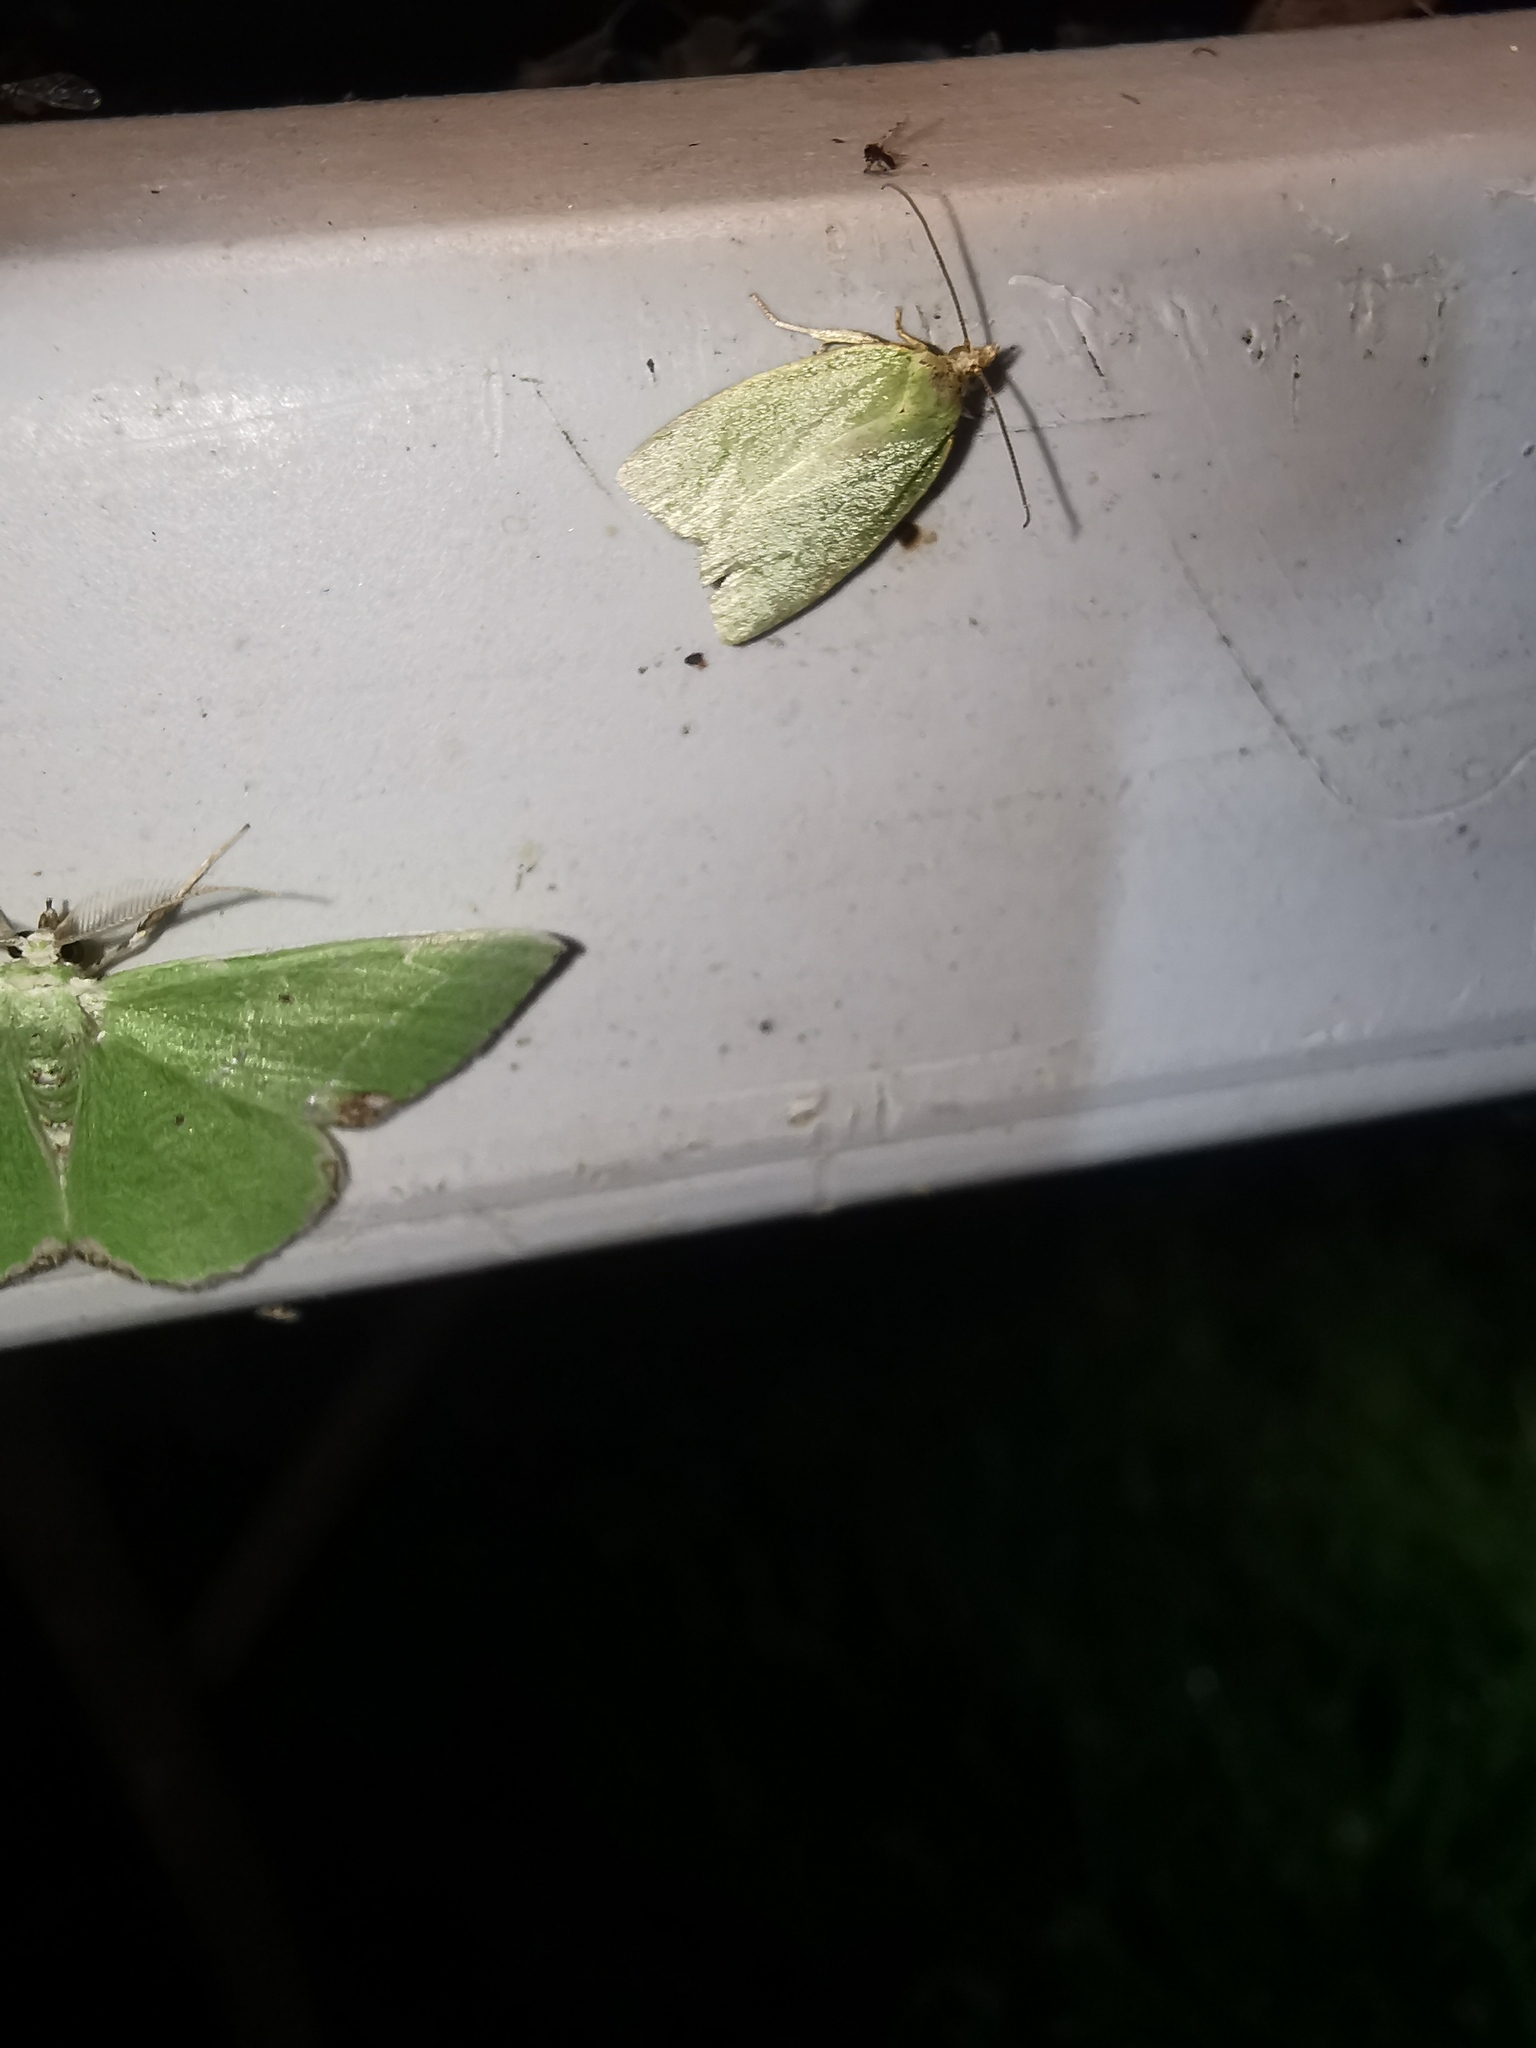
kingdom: Animalia
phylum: Arthropoda
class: Insecta
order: Lepidoptera
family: Tortricidae
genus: Tortrix
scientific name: Tortrix viridana
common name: Green oak tortrix
